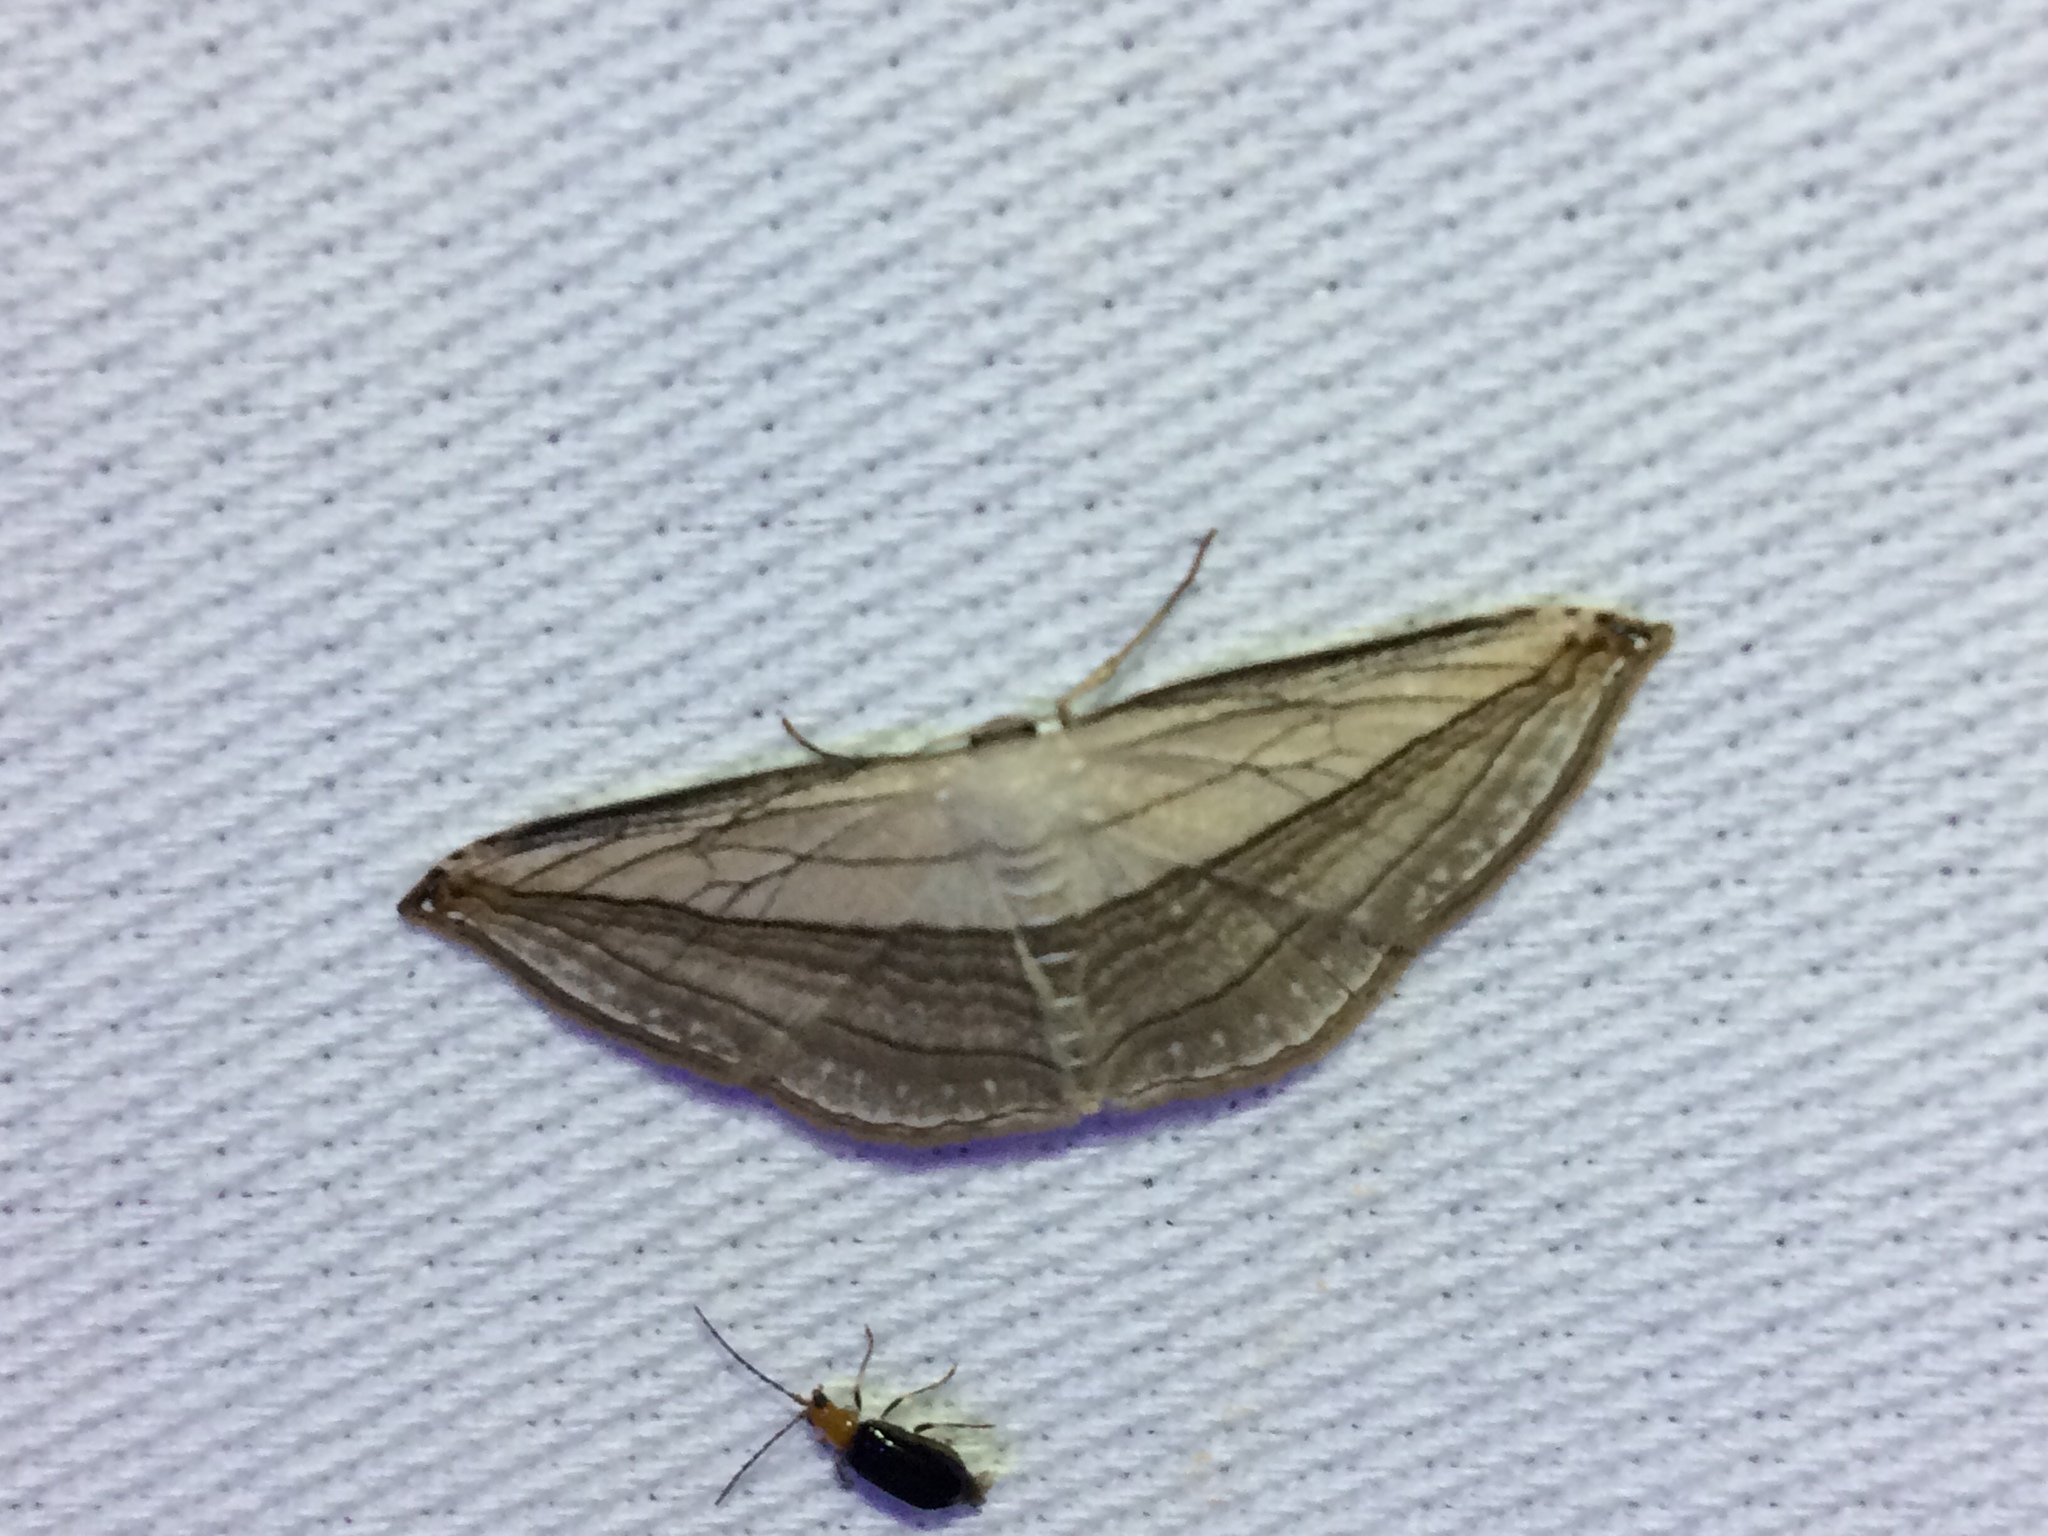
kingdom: Animalia
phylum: Arthropoda
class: Insecta
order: Lepidoptera
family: Geometridae
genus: Arcobara
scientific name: Arcobara tergeminaria
